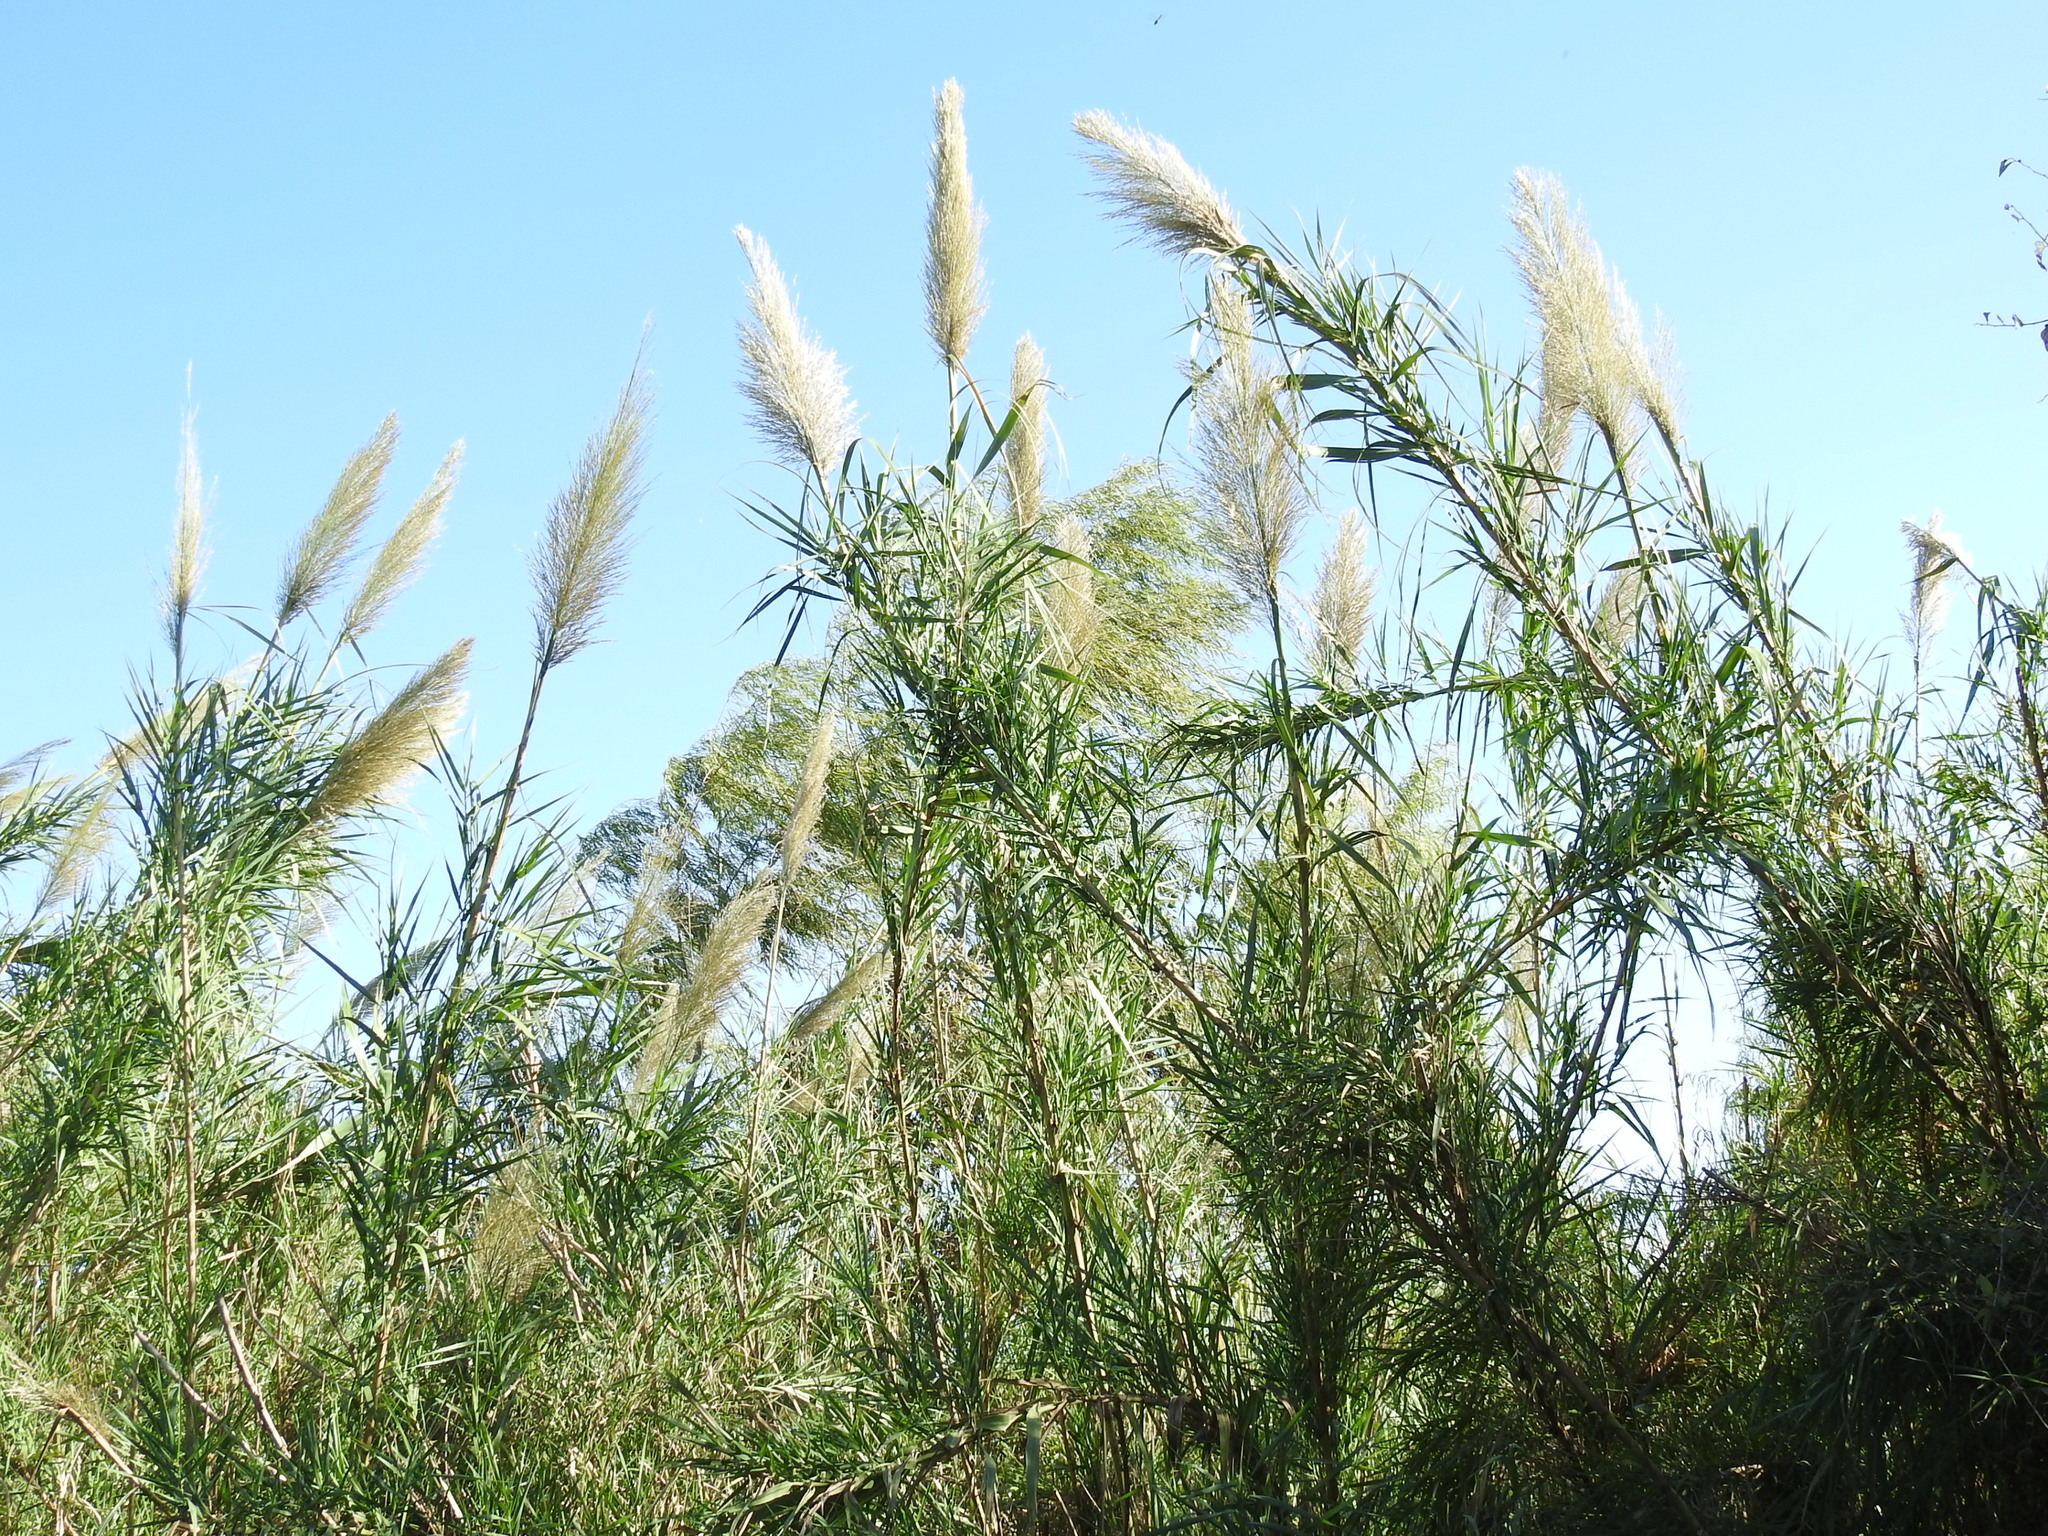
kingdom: Plantae
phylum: Tracheophyta
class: Liliopsida
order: Poales
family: Poaceae
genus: Arundo
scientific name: Arundo donax
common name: Giant reed
